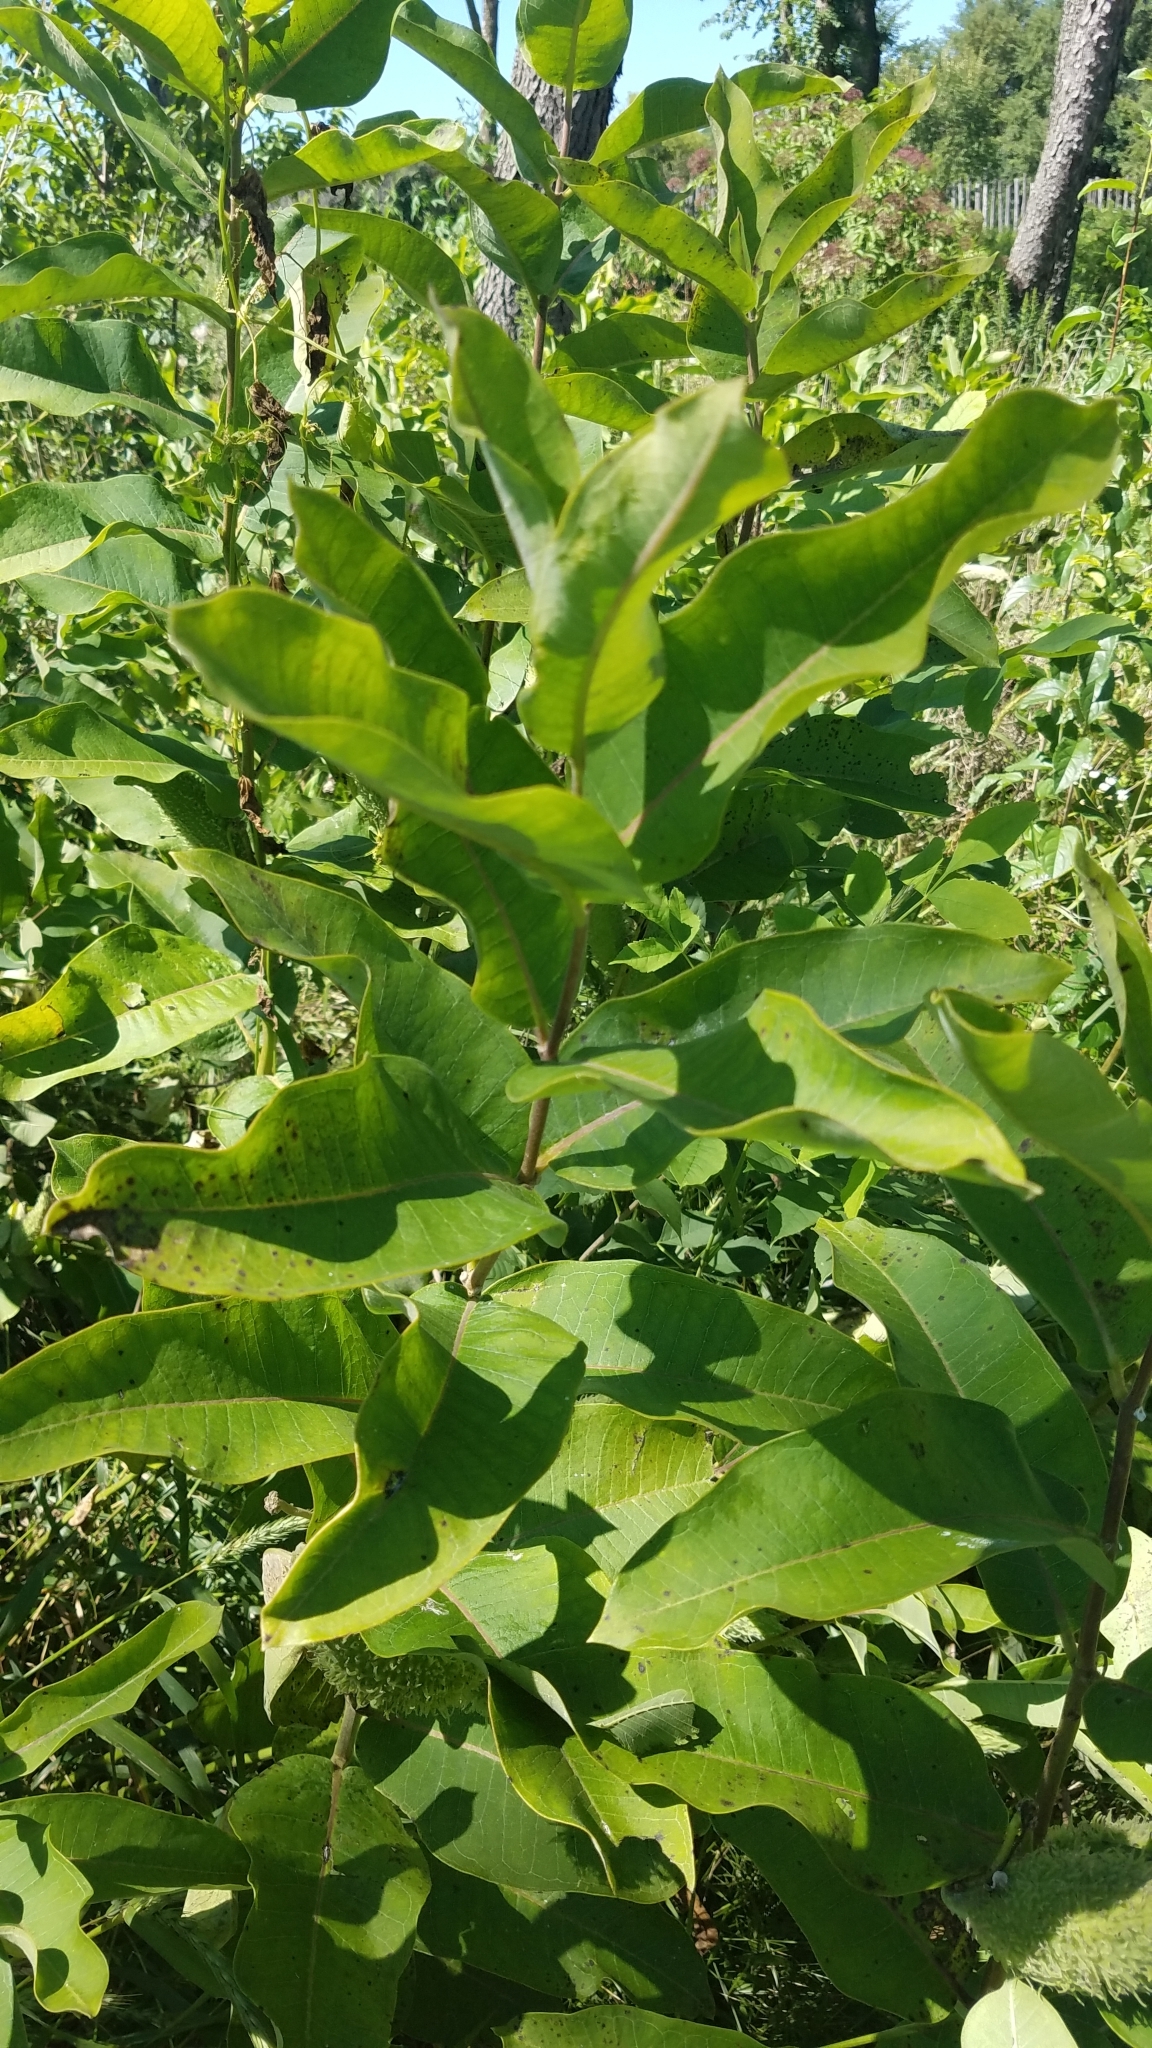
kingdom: Plantae
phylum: Tracheophyta
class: Magnoliopsida
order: Gentianales
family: Apocynaceae
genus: Asclepias
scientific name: Asclepias syriaca
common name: Common milkweed
